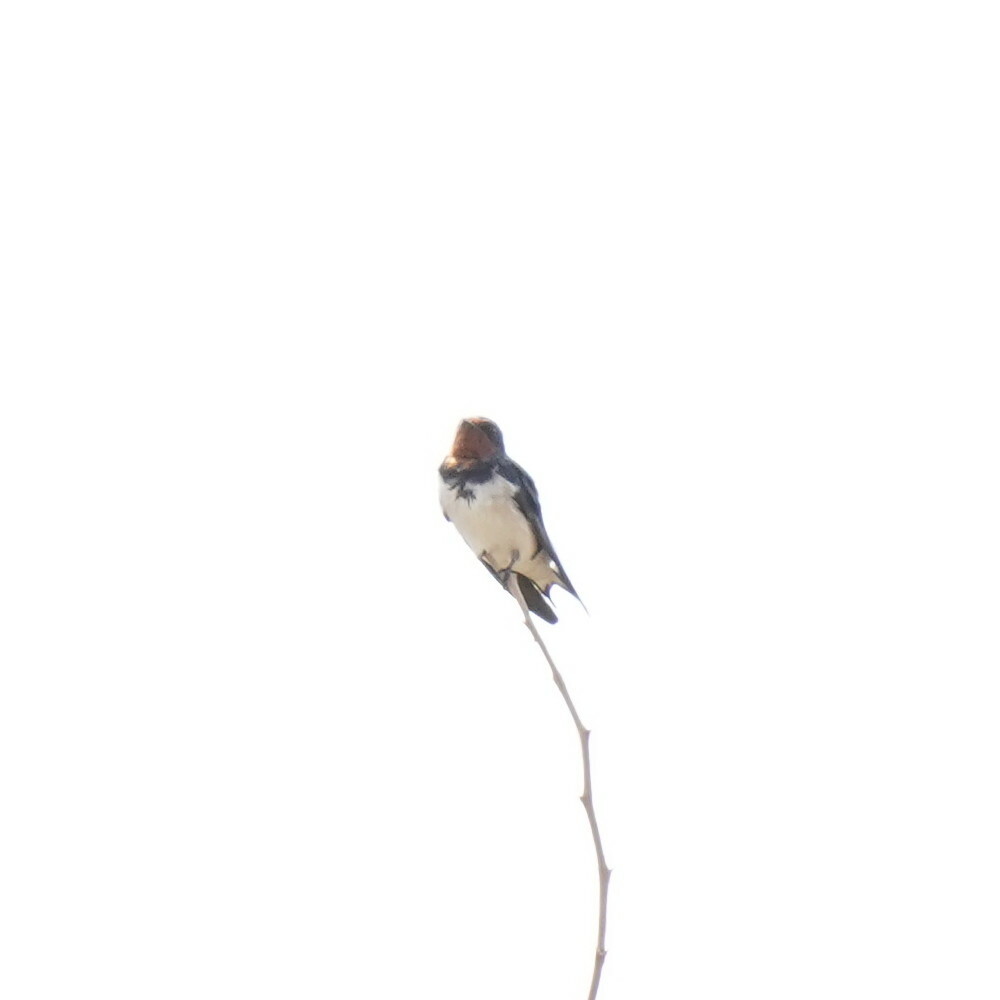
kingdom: Animalia
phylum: Chordata
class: Aves
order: Passeriformes
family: Hirundinidae
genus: Hirundo
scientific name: Hirundo lucida
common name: Red-chested swallow
